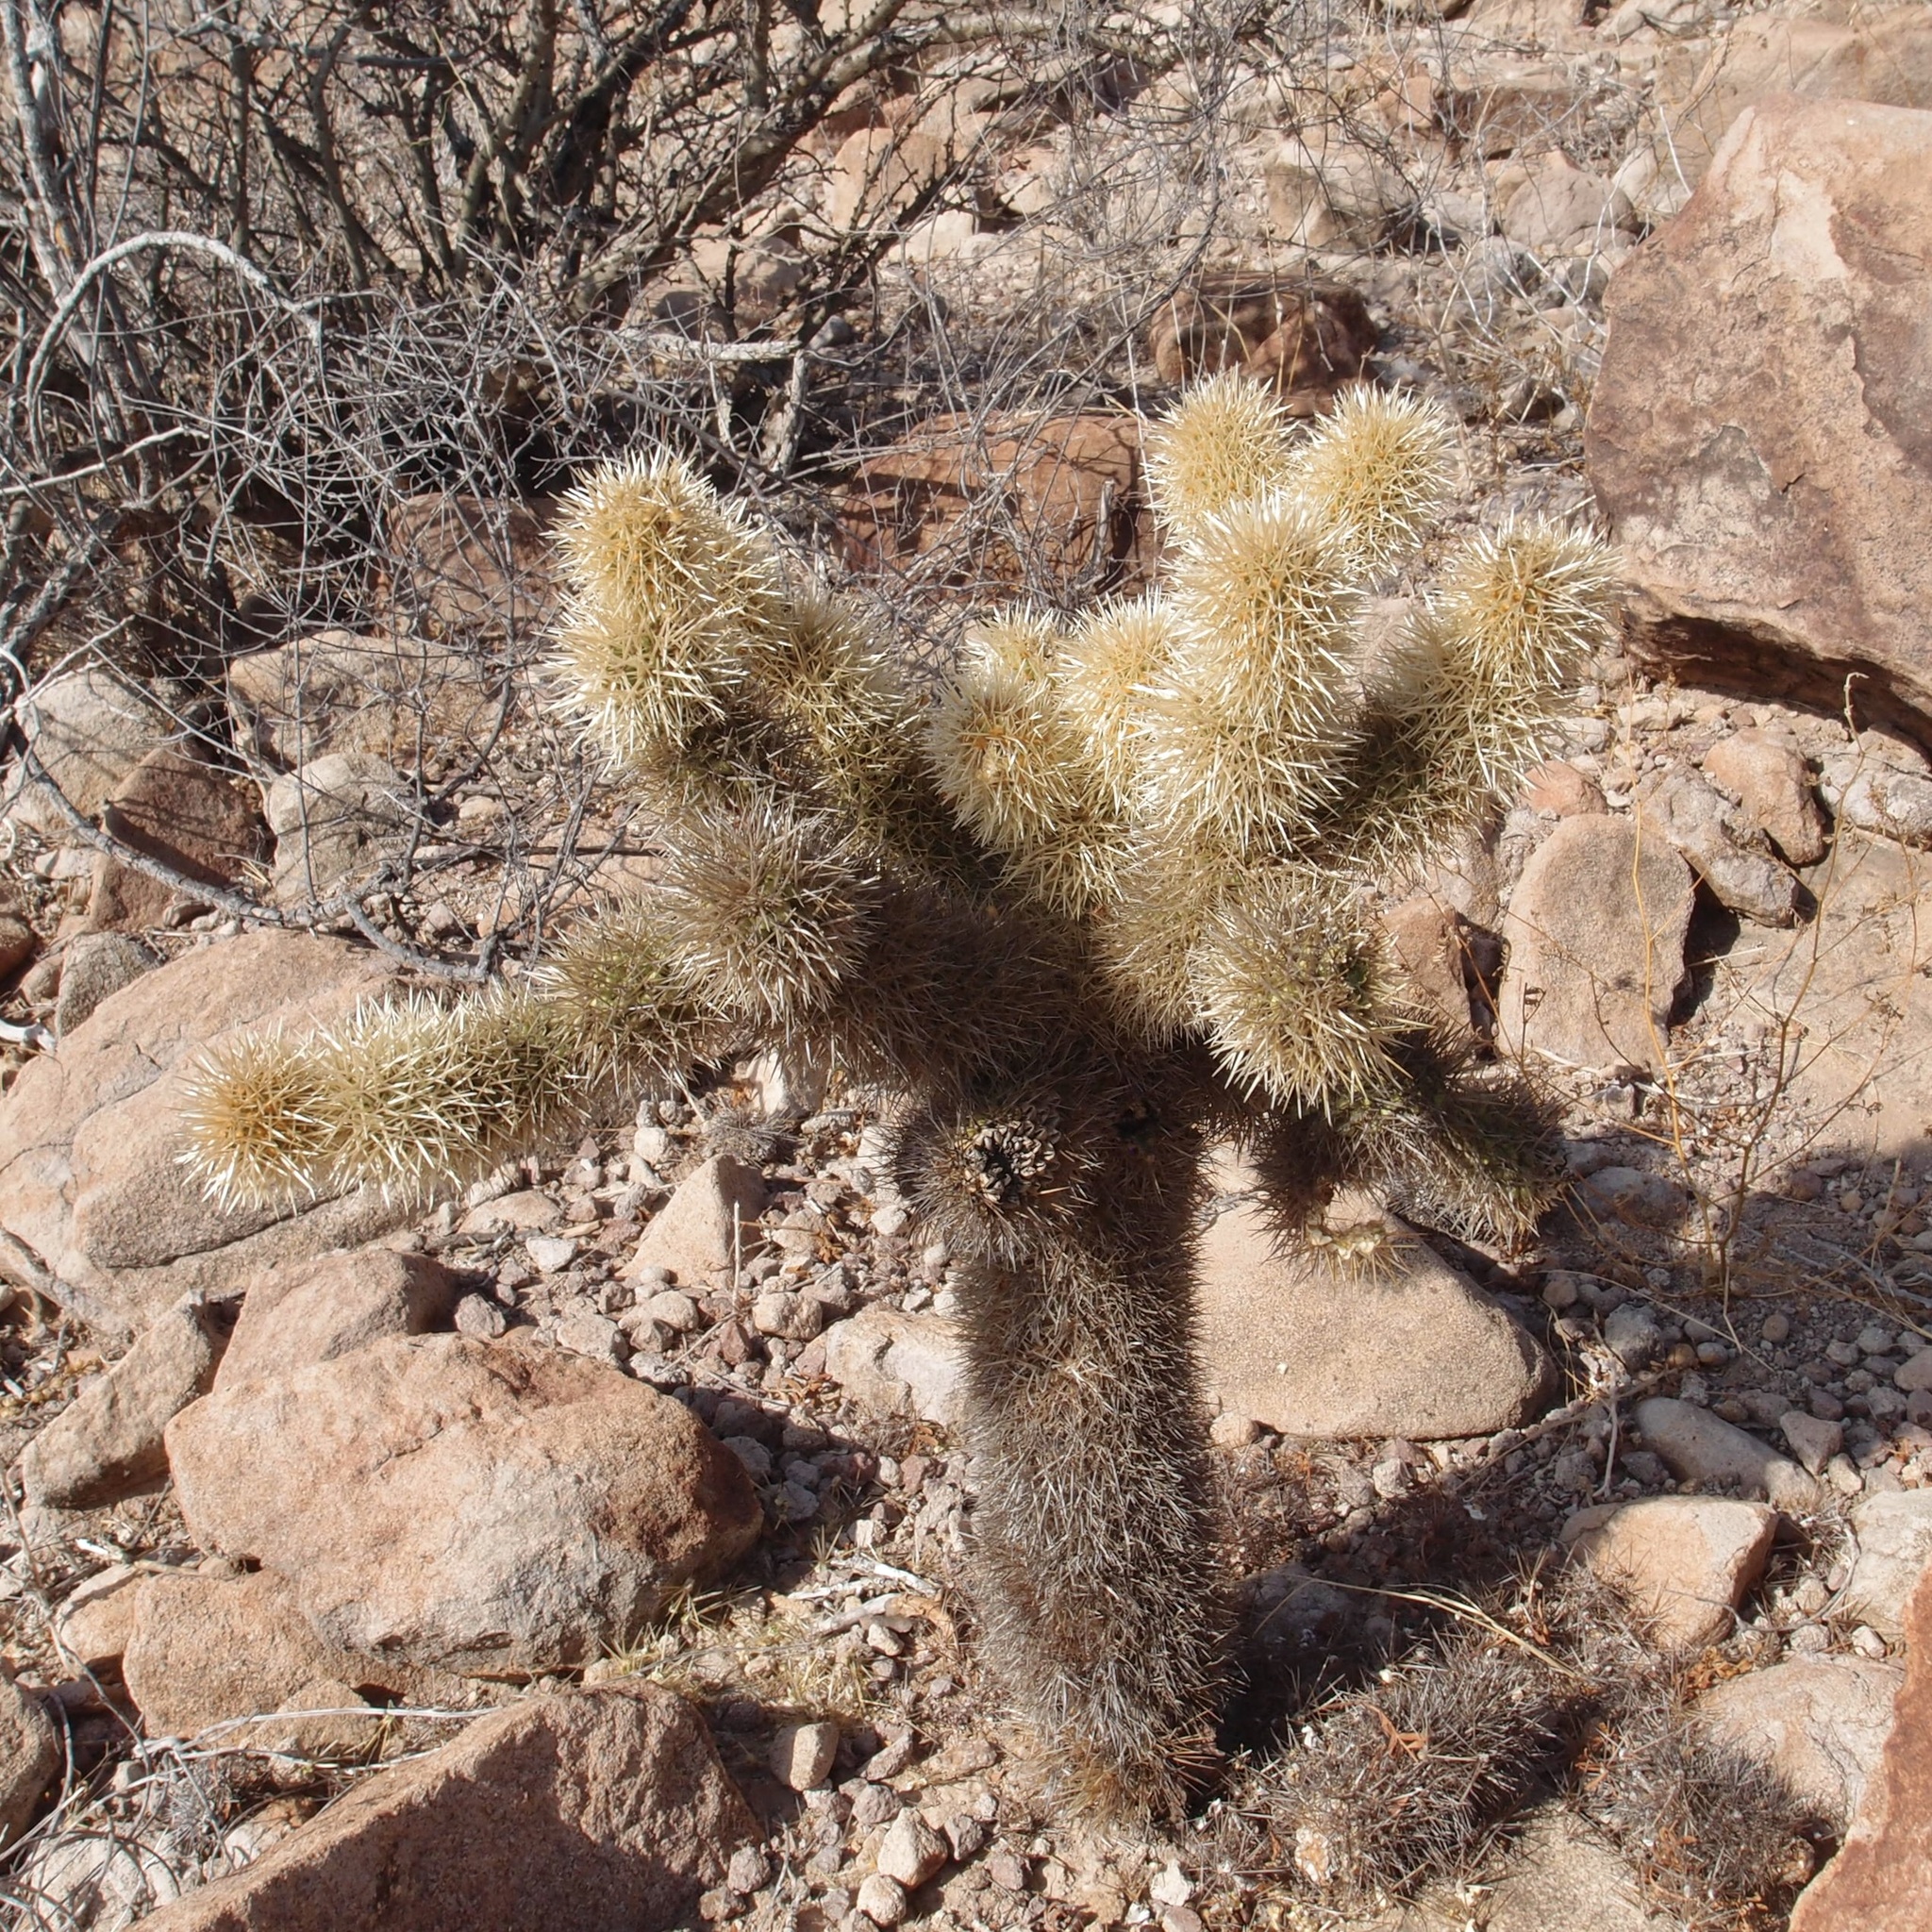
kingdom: Plantae
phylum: Tracheophyta
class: Magnoliopsida
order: Caryophyllales
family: Cactaceae
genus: Cylindropuntia
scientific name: Cylindropuntia fosbergii
